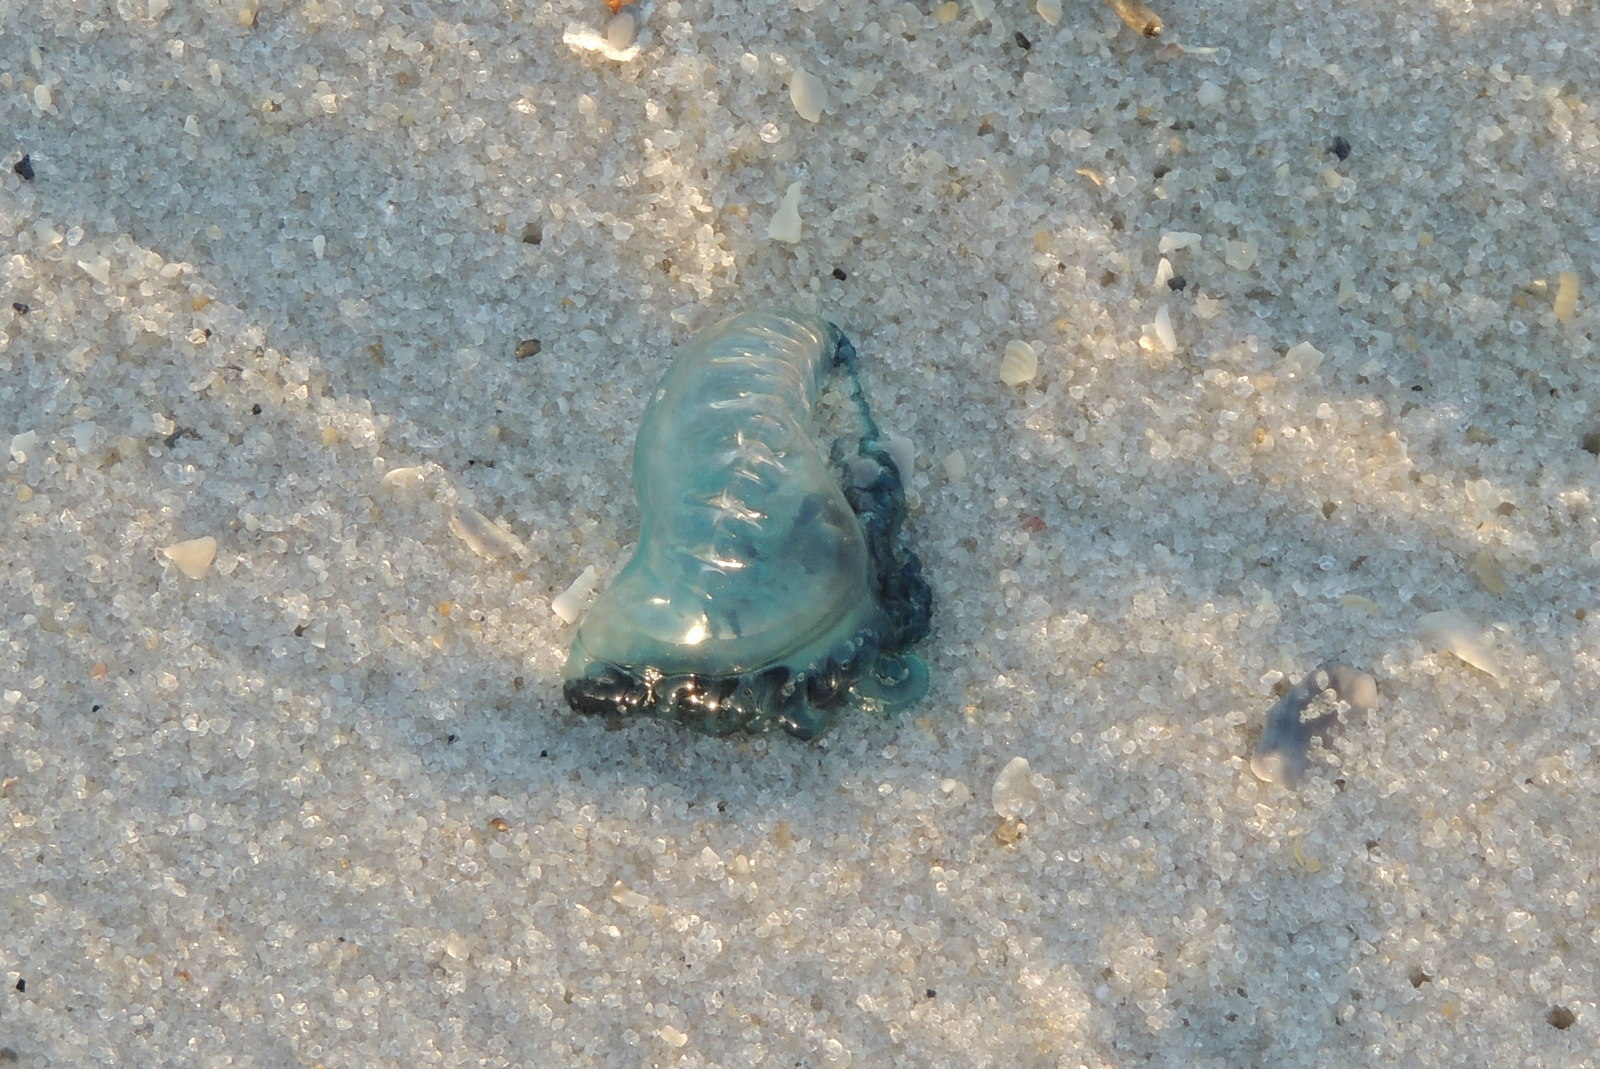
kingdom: Animalia
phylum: Cnidaria
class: Hydrozoa
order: Siphonophorae
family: Physaliidae
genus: Physalia
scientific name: Physalia physalis
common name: Portuguese man-of-war
